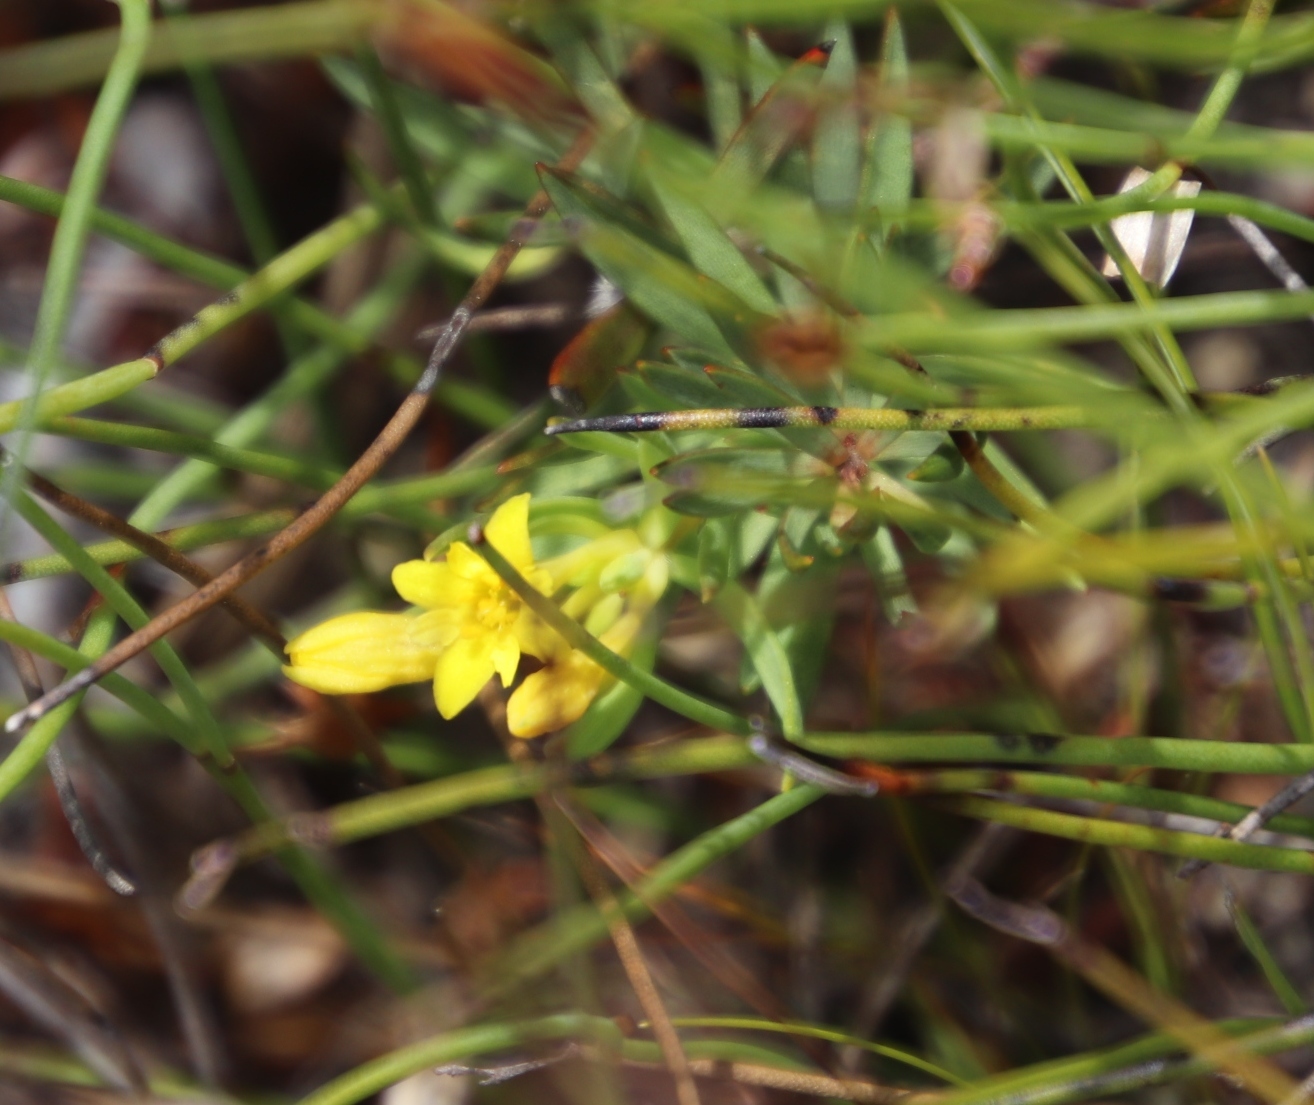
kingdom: Plantae
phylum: Tracheophyta
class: Magnoliopsida
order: Malvales
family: Thymelaeaceae
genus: Gnidia
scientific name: Gnidia simplex
